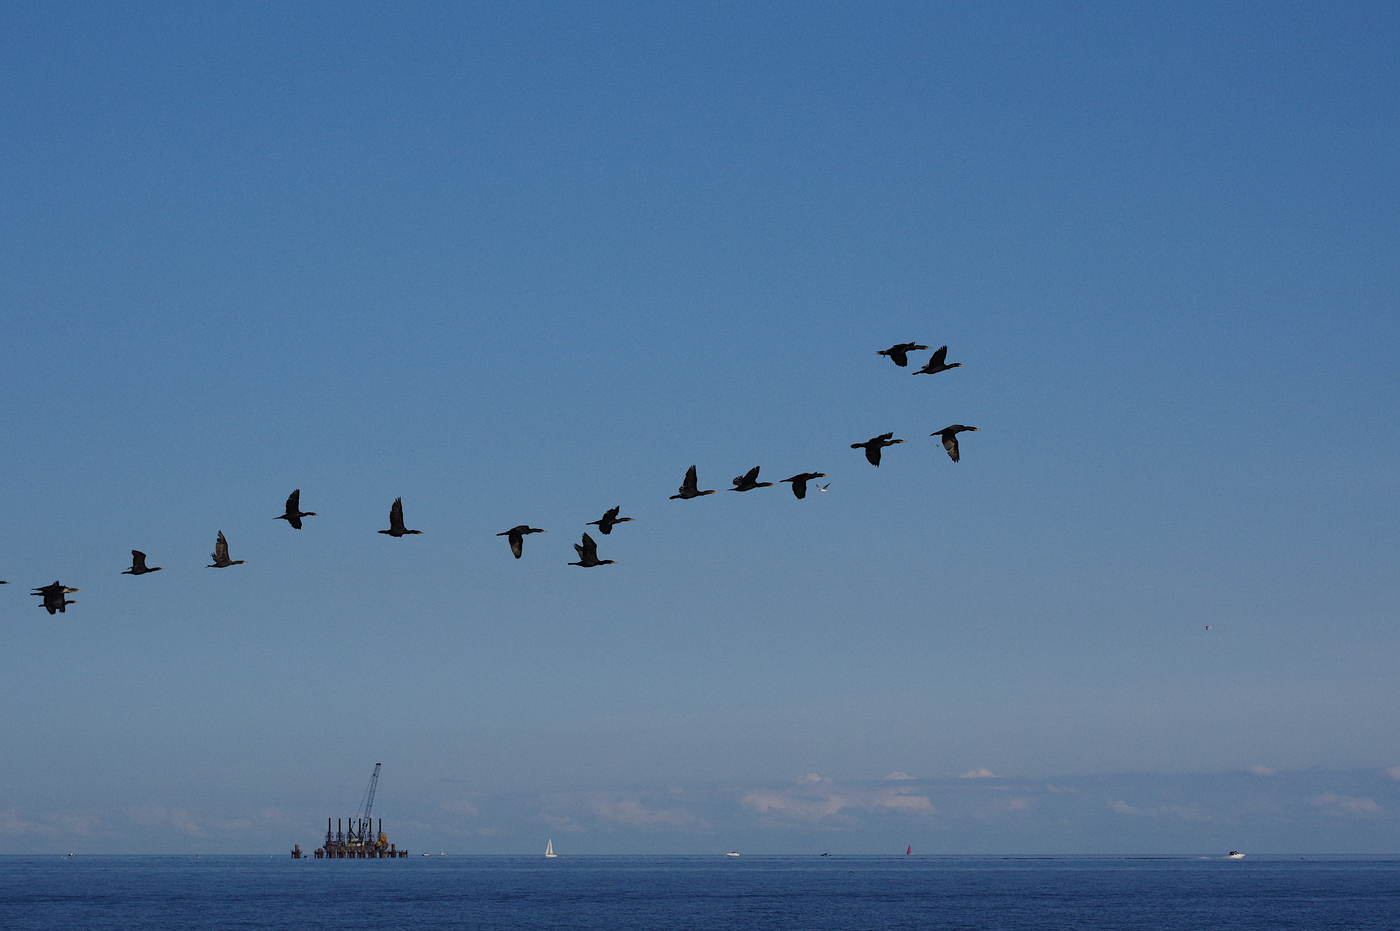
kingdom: Animalia
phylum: Chordata
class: Aves
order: Suliformes
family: Phalacrocoracidae
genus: Phalacrocorax
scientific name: Phalacrocorax auritus
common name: Double-crested cormorant
